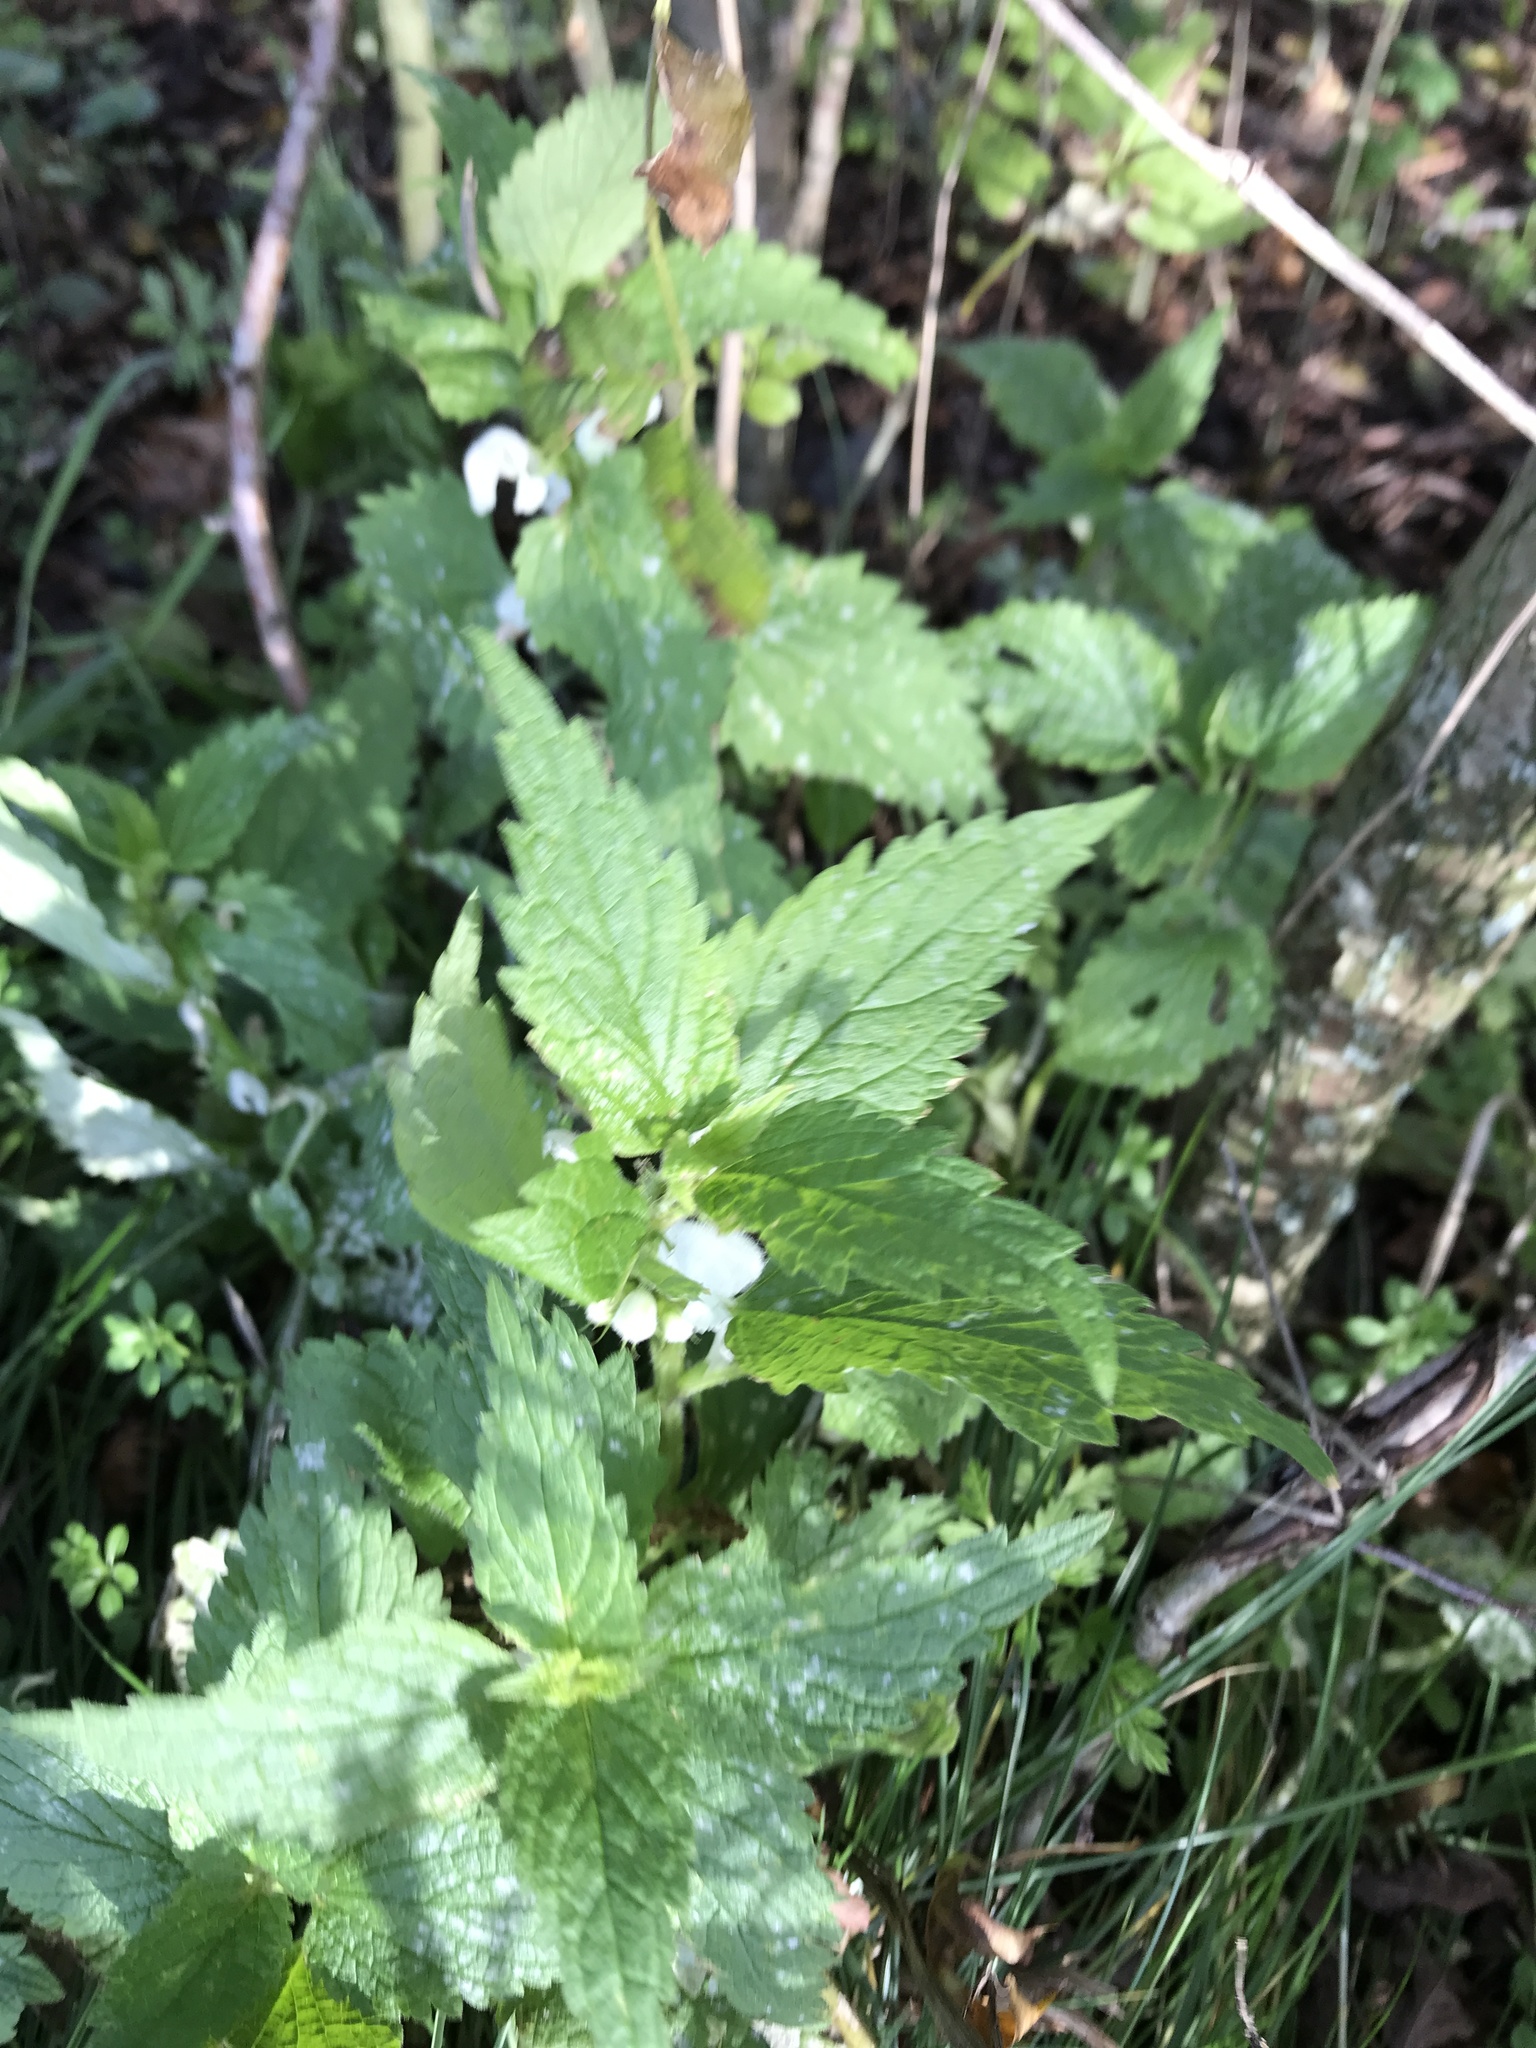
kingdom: Plantae
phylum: Tracheophyta
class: Magnoliopsida
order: Lamiales
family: Lamiaceae
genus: Lamium
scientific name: Lamium album
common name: White dead-nettle
